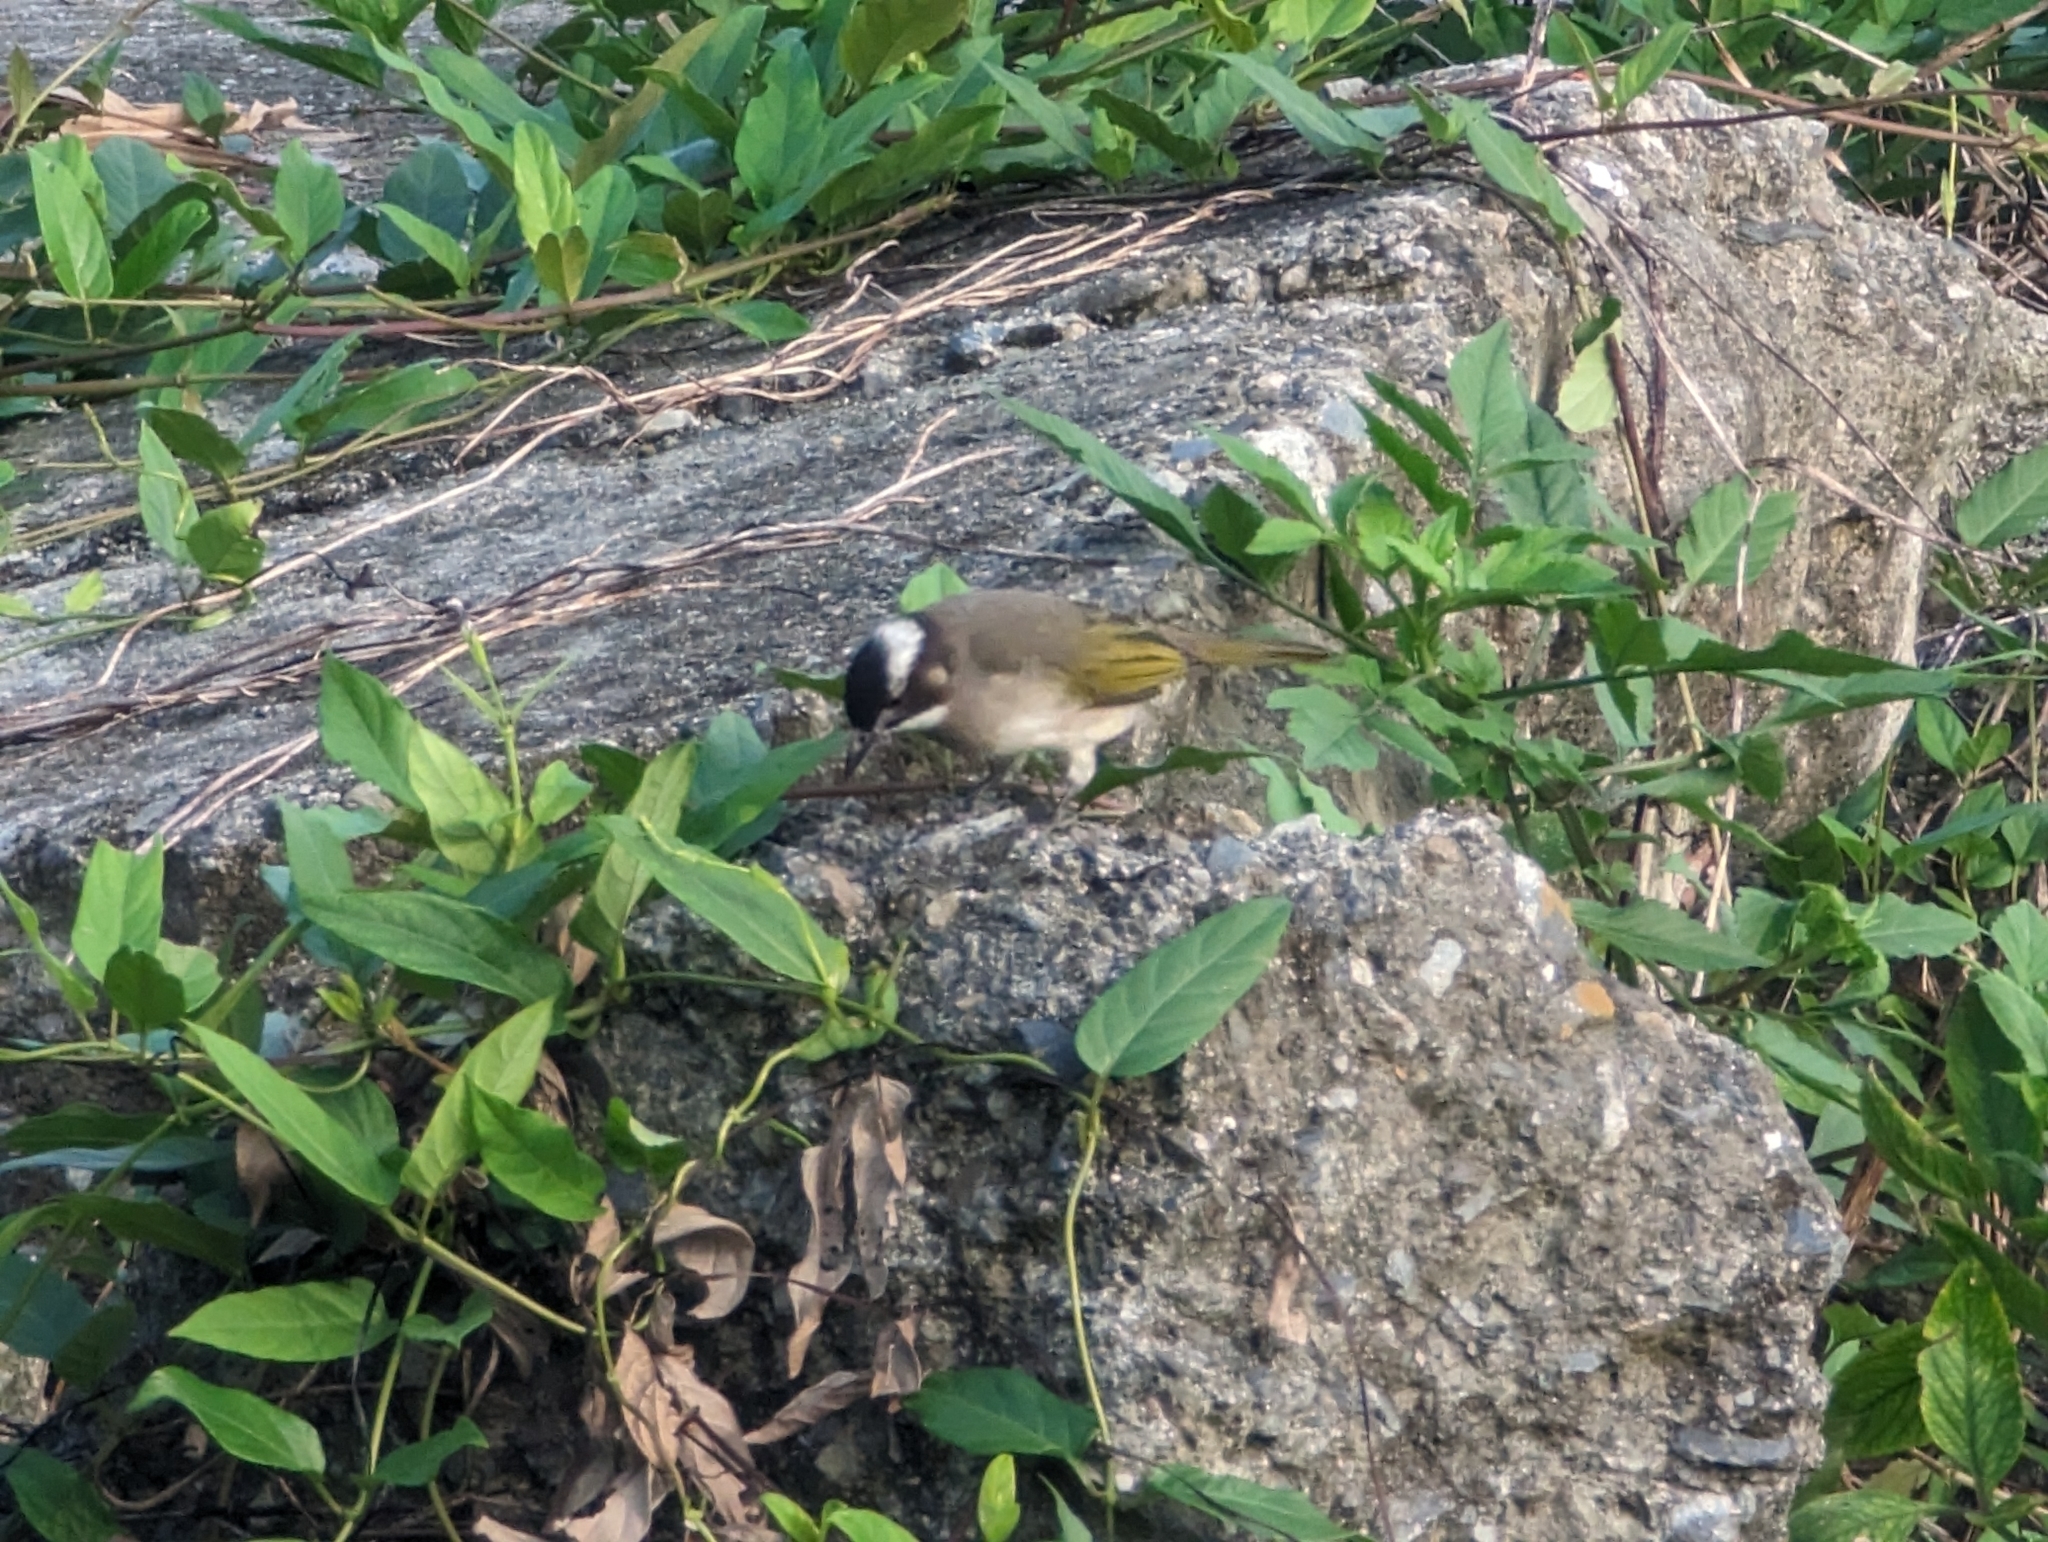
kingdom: Animalia
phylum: Chordata
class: Aves
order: Passeriformes
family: Pycnonotidae
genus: Pycnonotus
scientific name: Pycnonotus sinensis
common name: Light-vented bulbul
